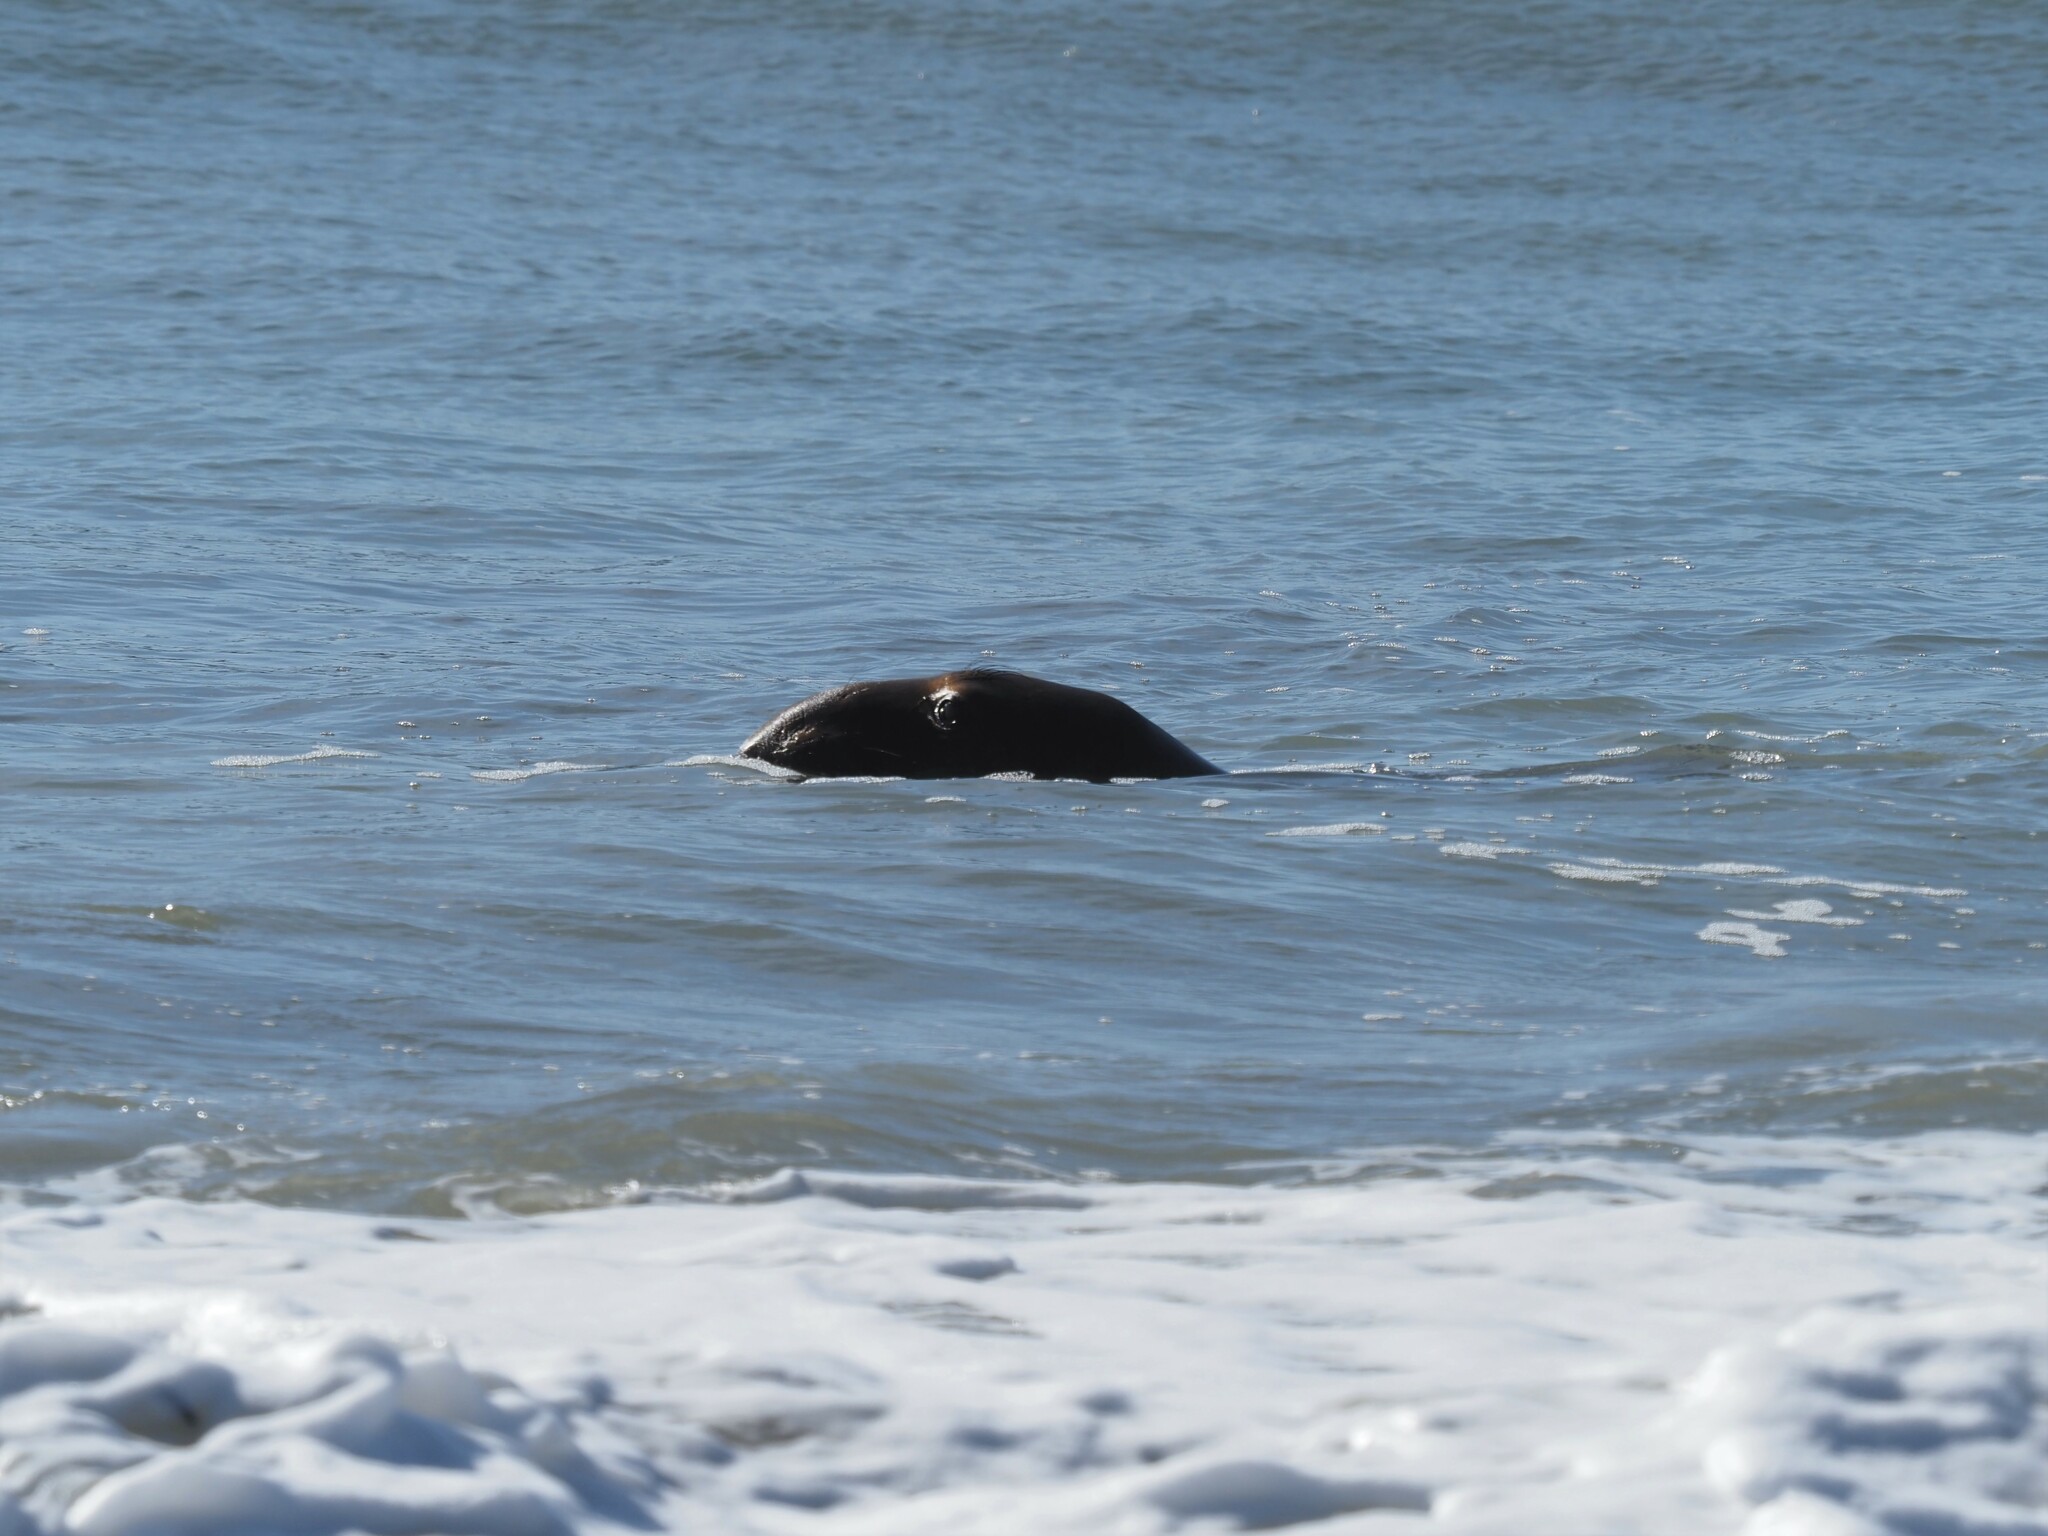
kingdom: Animalia
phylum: Chordata
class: Mammalia
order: Carnivora
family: Phocidae
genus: Mirounga
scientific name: Mirounga angustirostris
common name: Northern elephant seal
